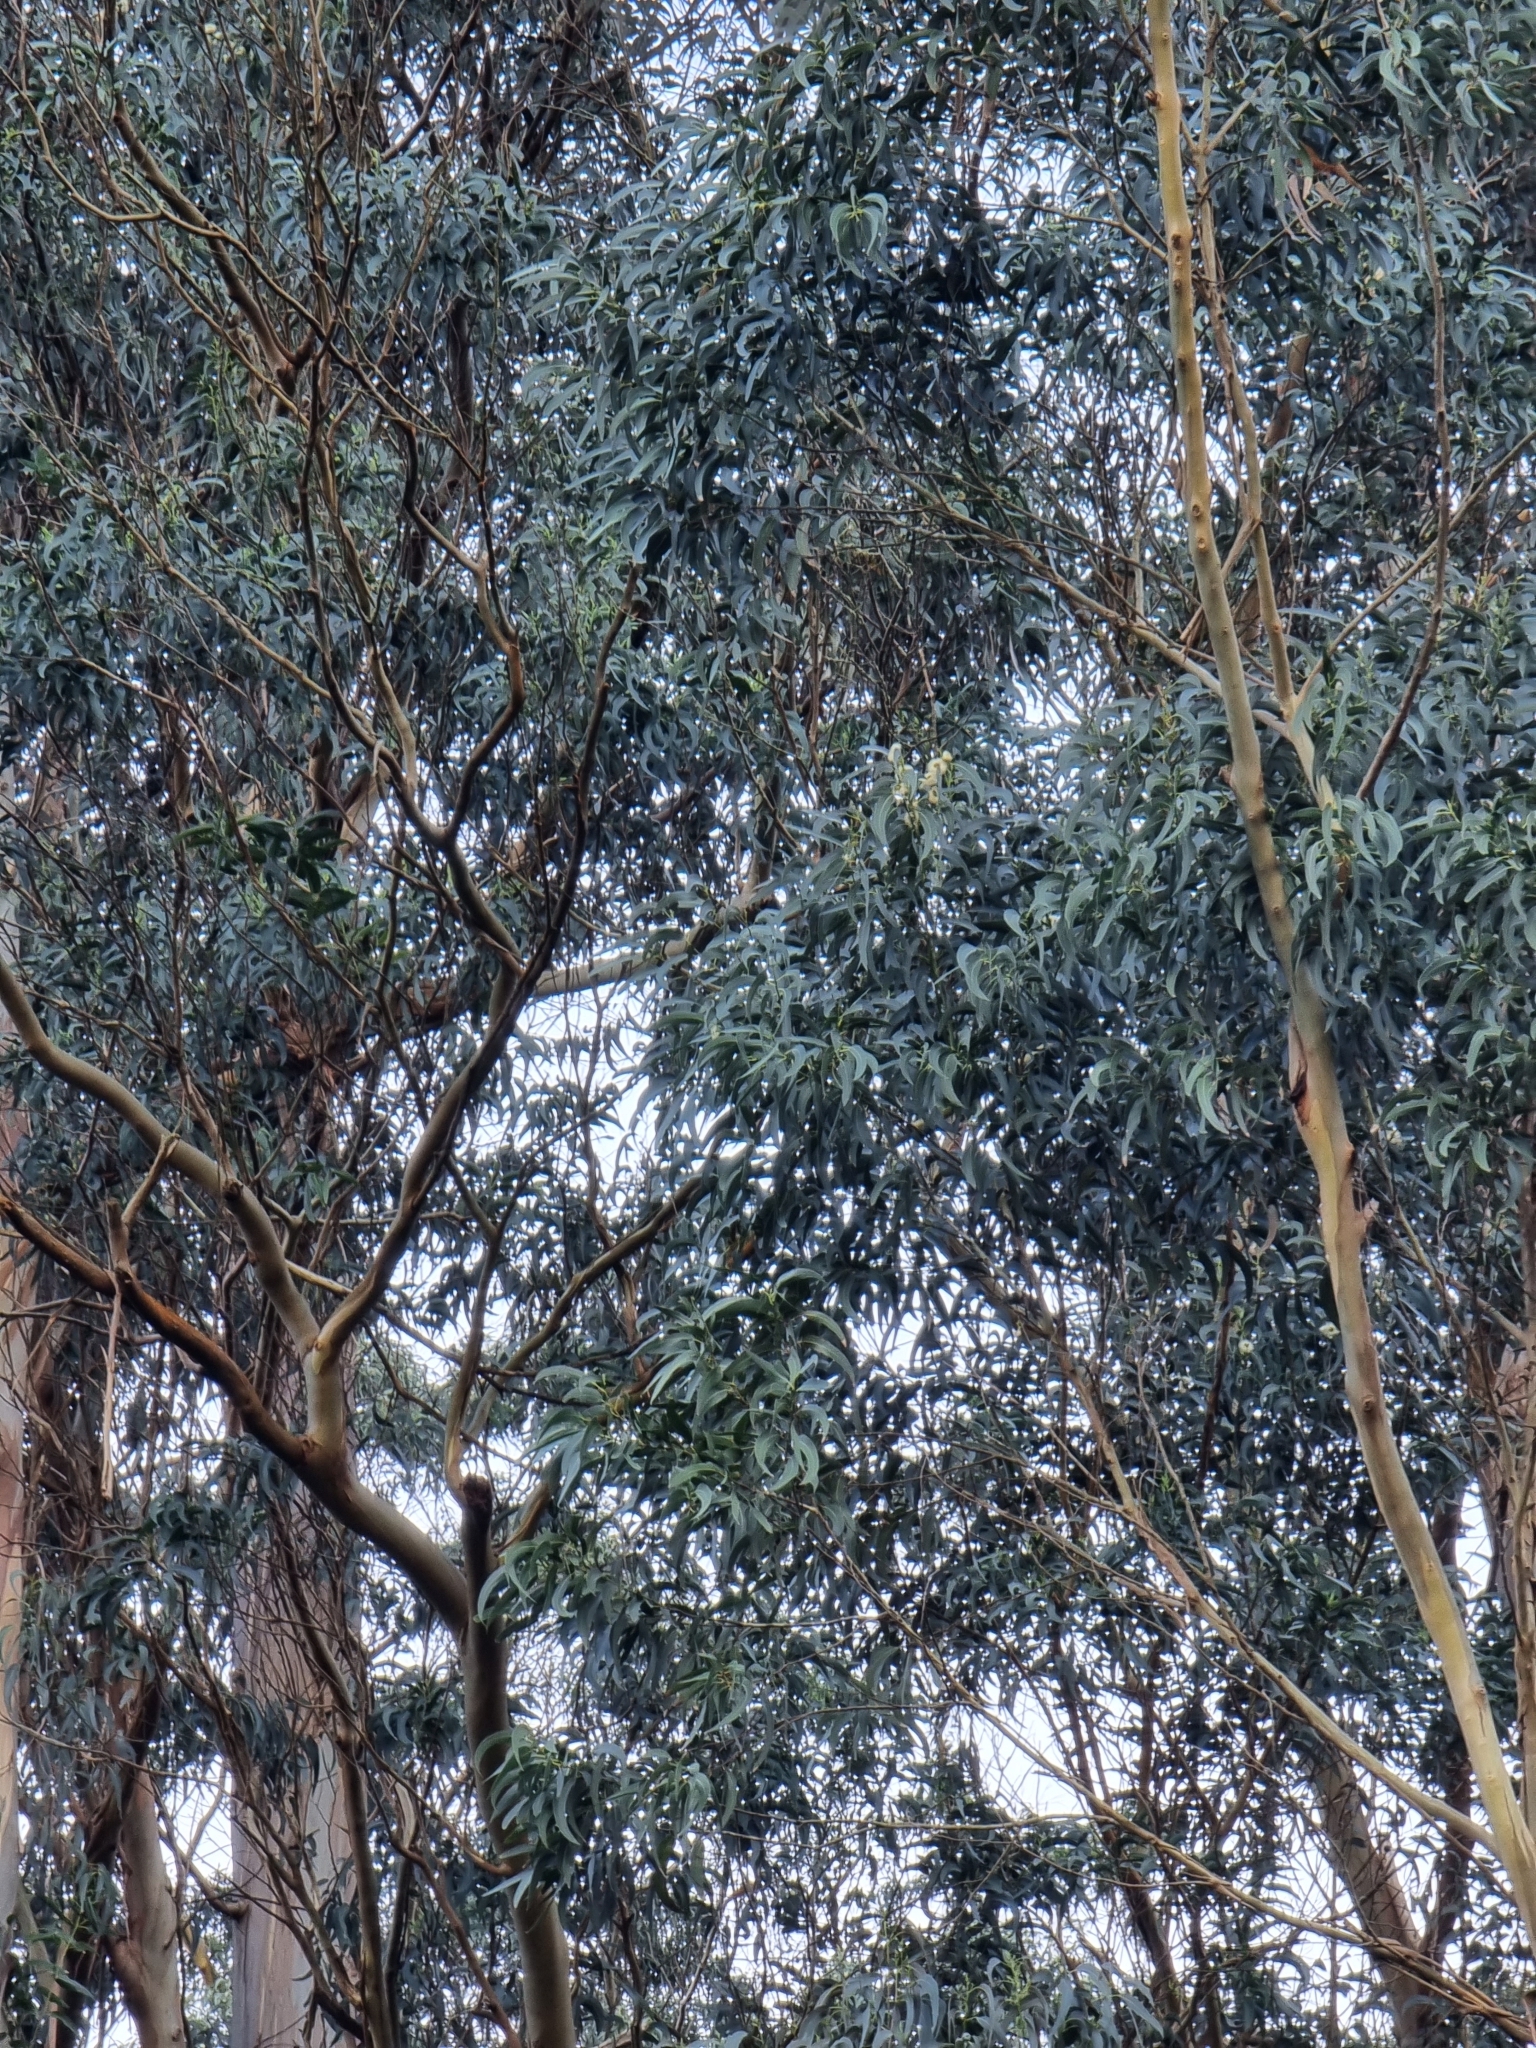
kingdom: Plantae
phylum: Tracheophyta
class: Magnoliopsida
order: Myrtales
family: Myrtaceae
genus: Eucalyptus
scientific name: Eucalyptus globulus
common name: Southern blue-gum
